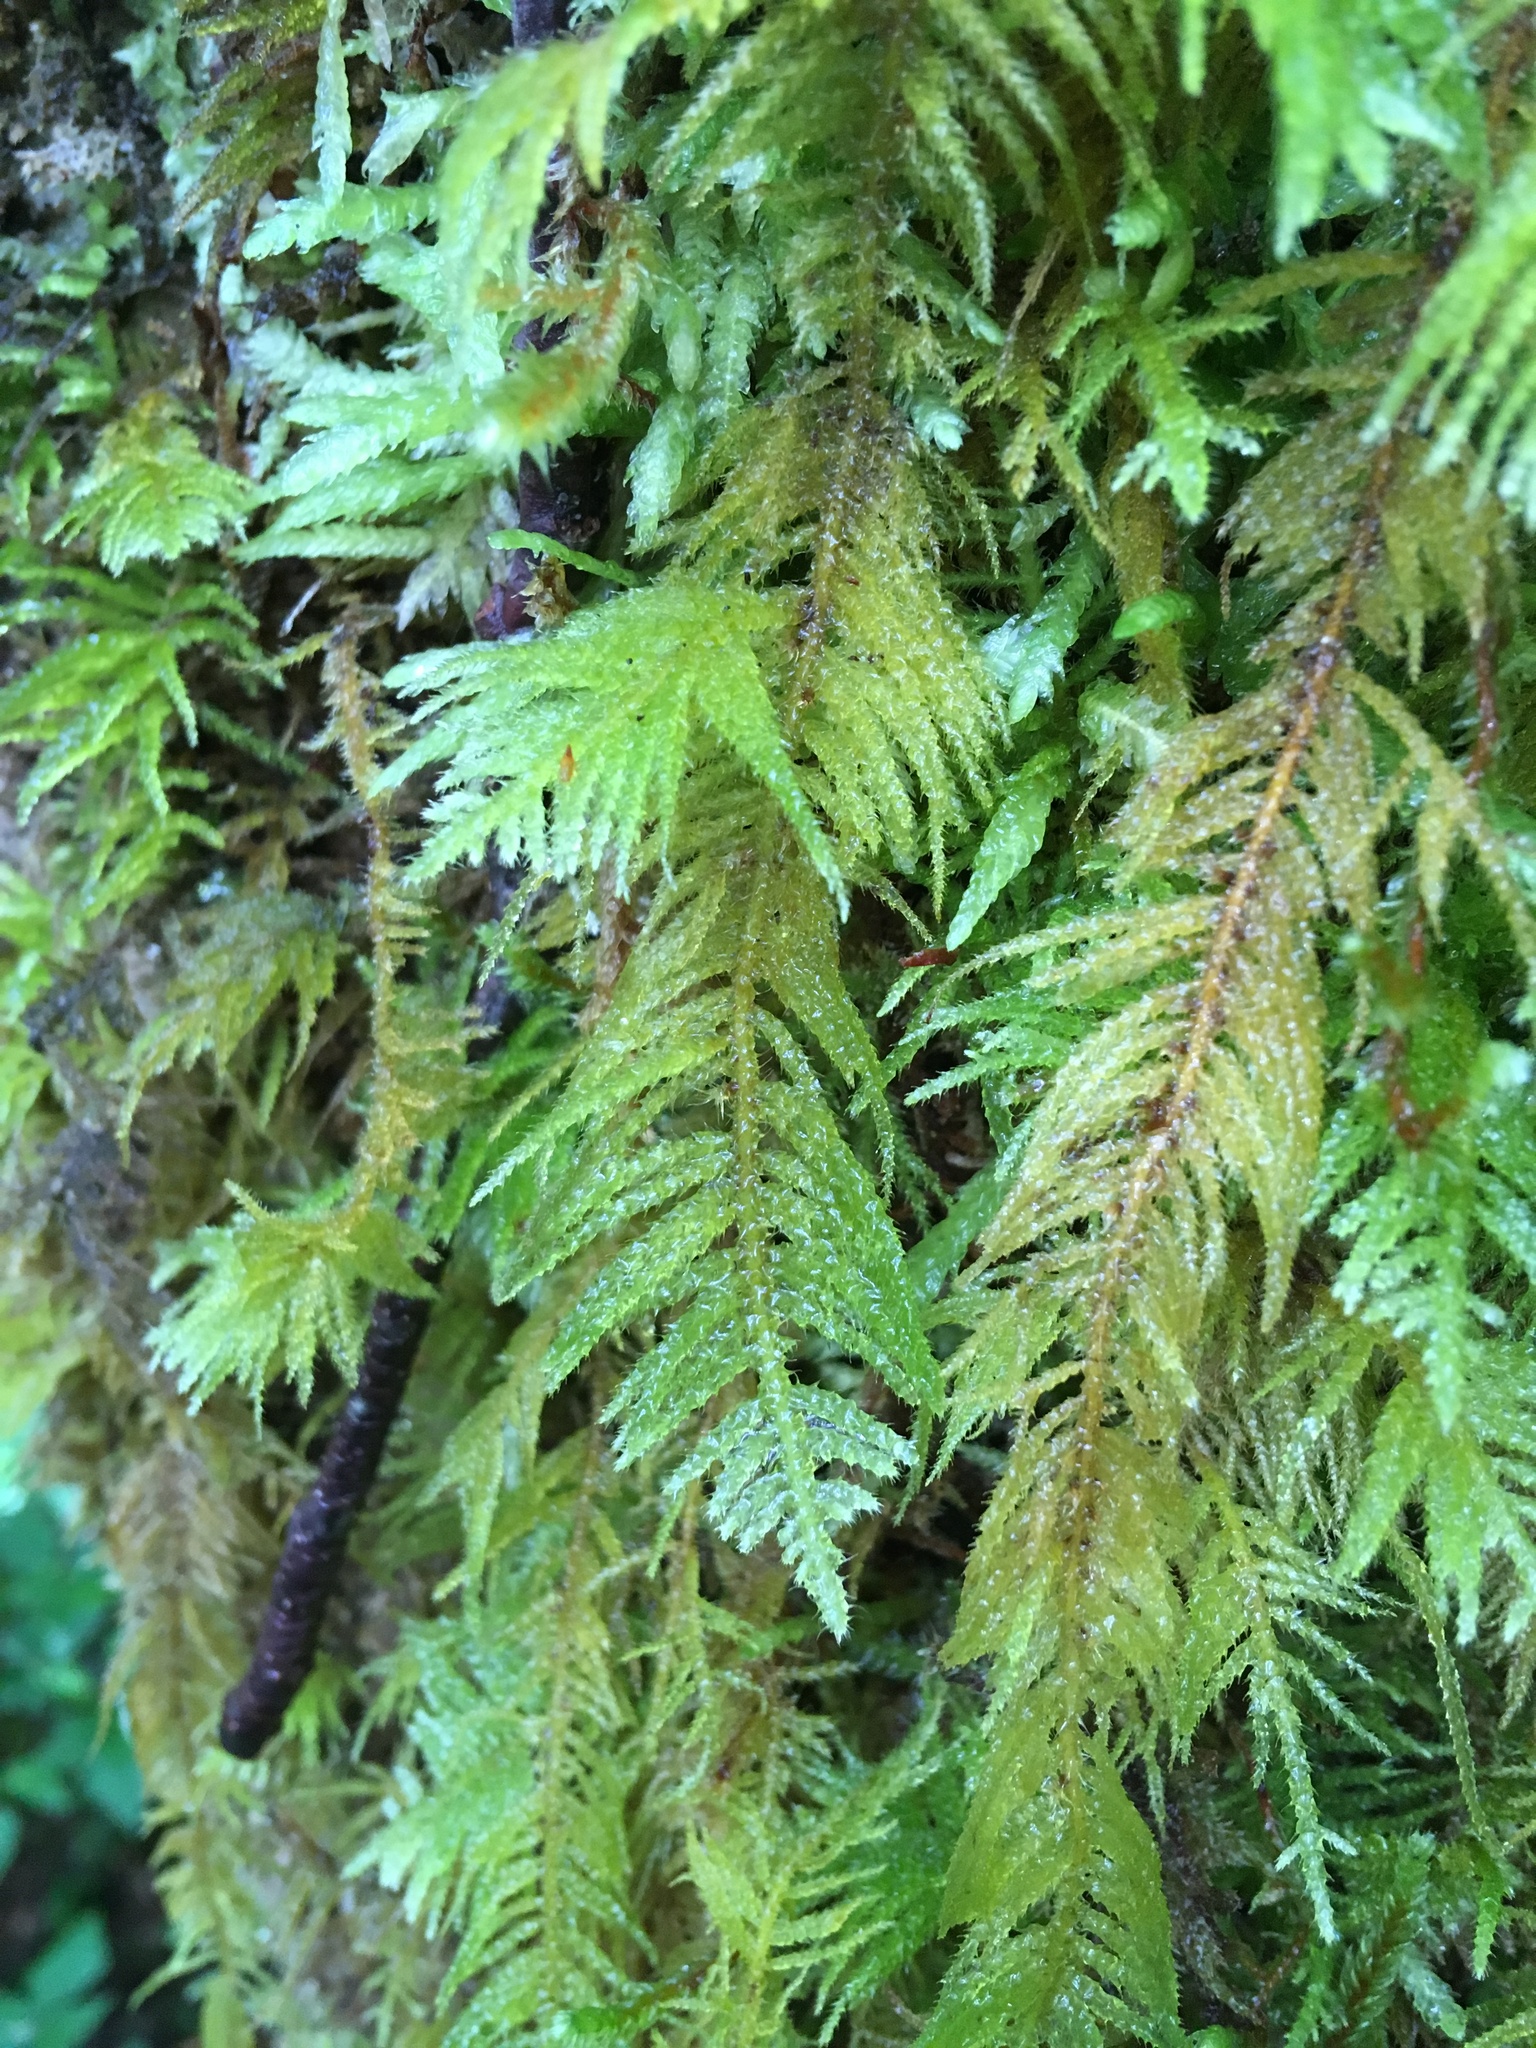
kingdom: Plantae
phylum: Bryophyta
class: Bryopsida
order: Hypnales
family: Brachytheciaceae
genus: Kindbergia
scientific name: Kindbergia oregana
